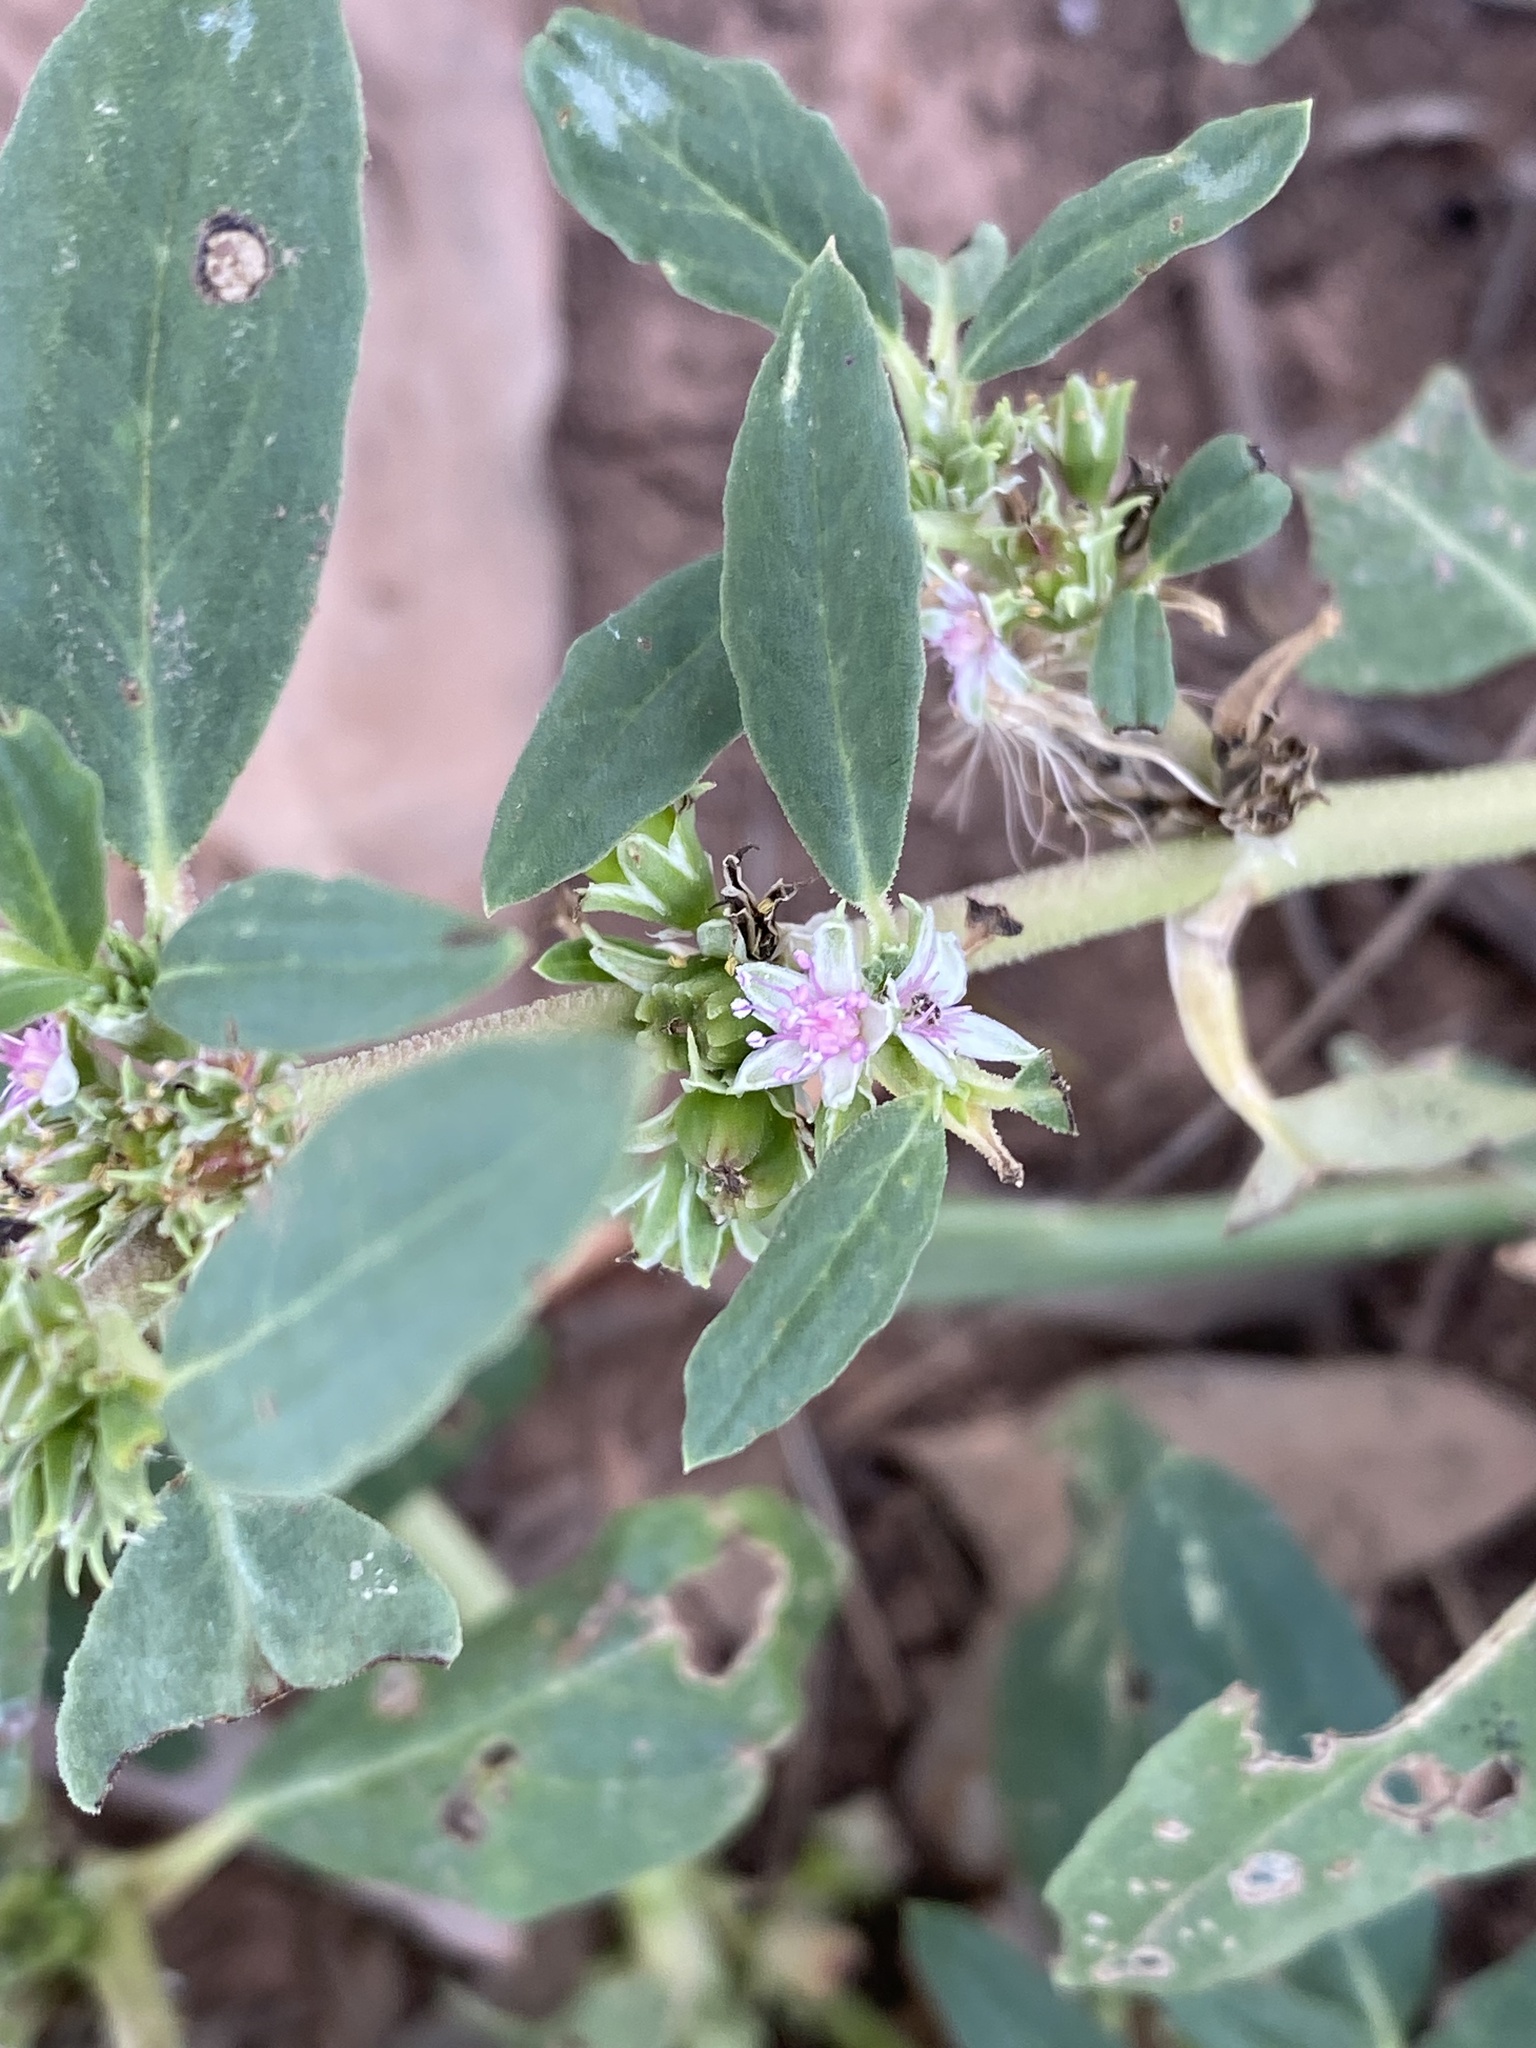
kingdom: Plantae
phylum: Tracheophyta
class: Magnoliopsida
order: Caryophyllales
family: Aizoaceae
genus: Zaleya
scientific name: Zaleya galericulata
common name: Garden-pigweed
